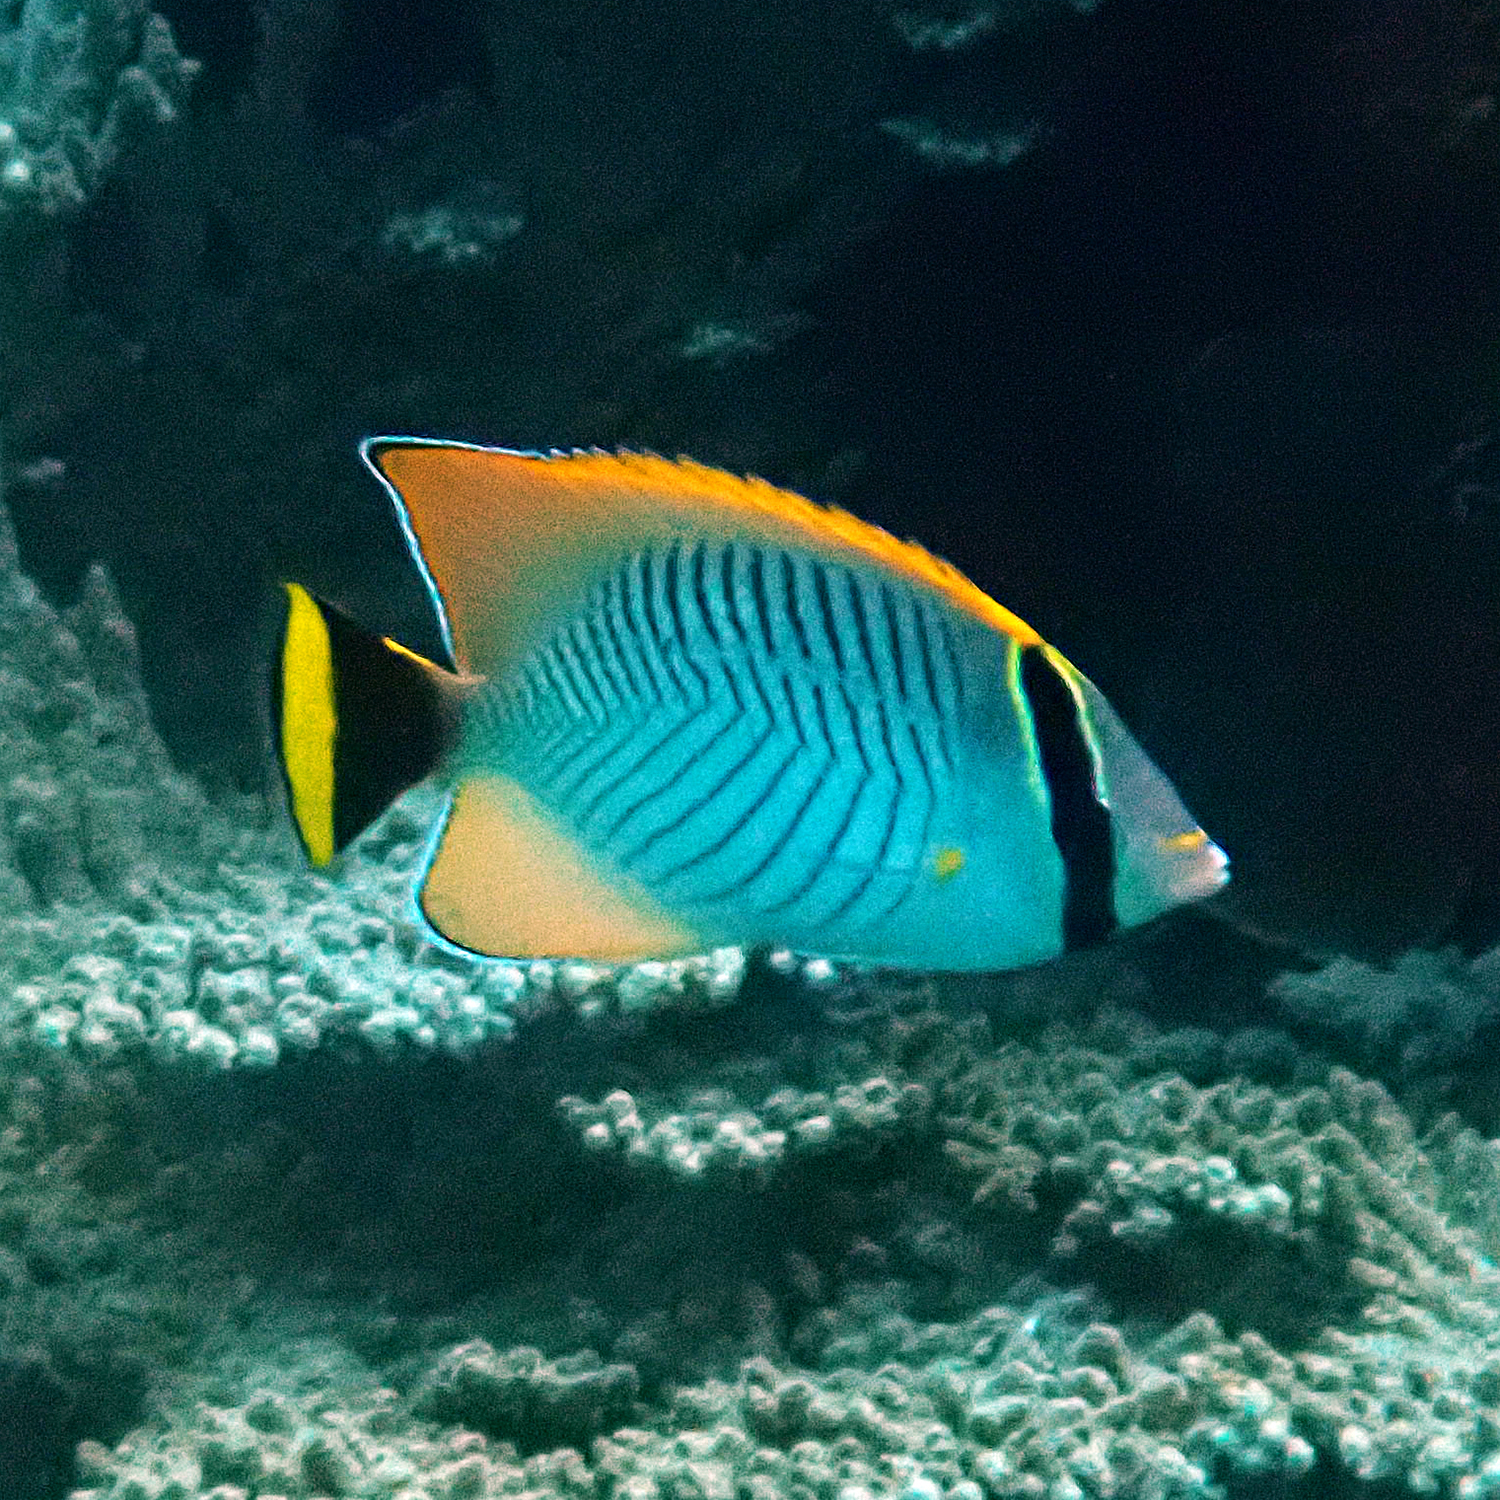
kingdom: Animalia
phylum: Chordata
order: Perciformes
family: Chaetodontidae
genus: Chaetodon
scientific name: Chaetodon trifascialis
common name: Chevroned butterflyfish
